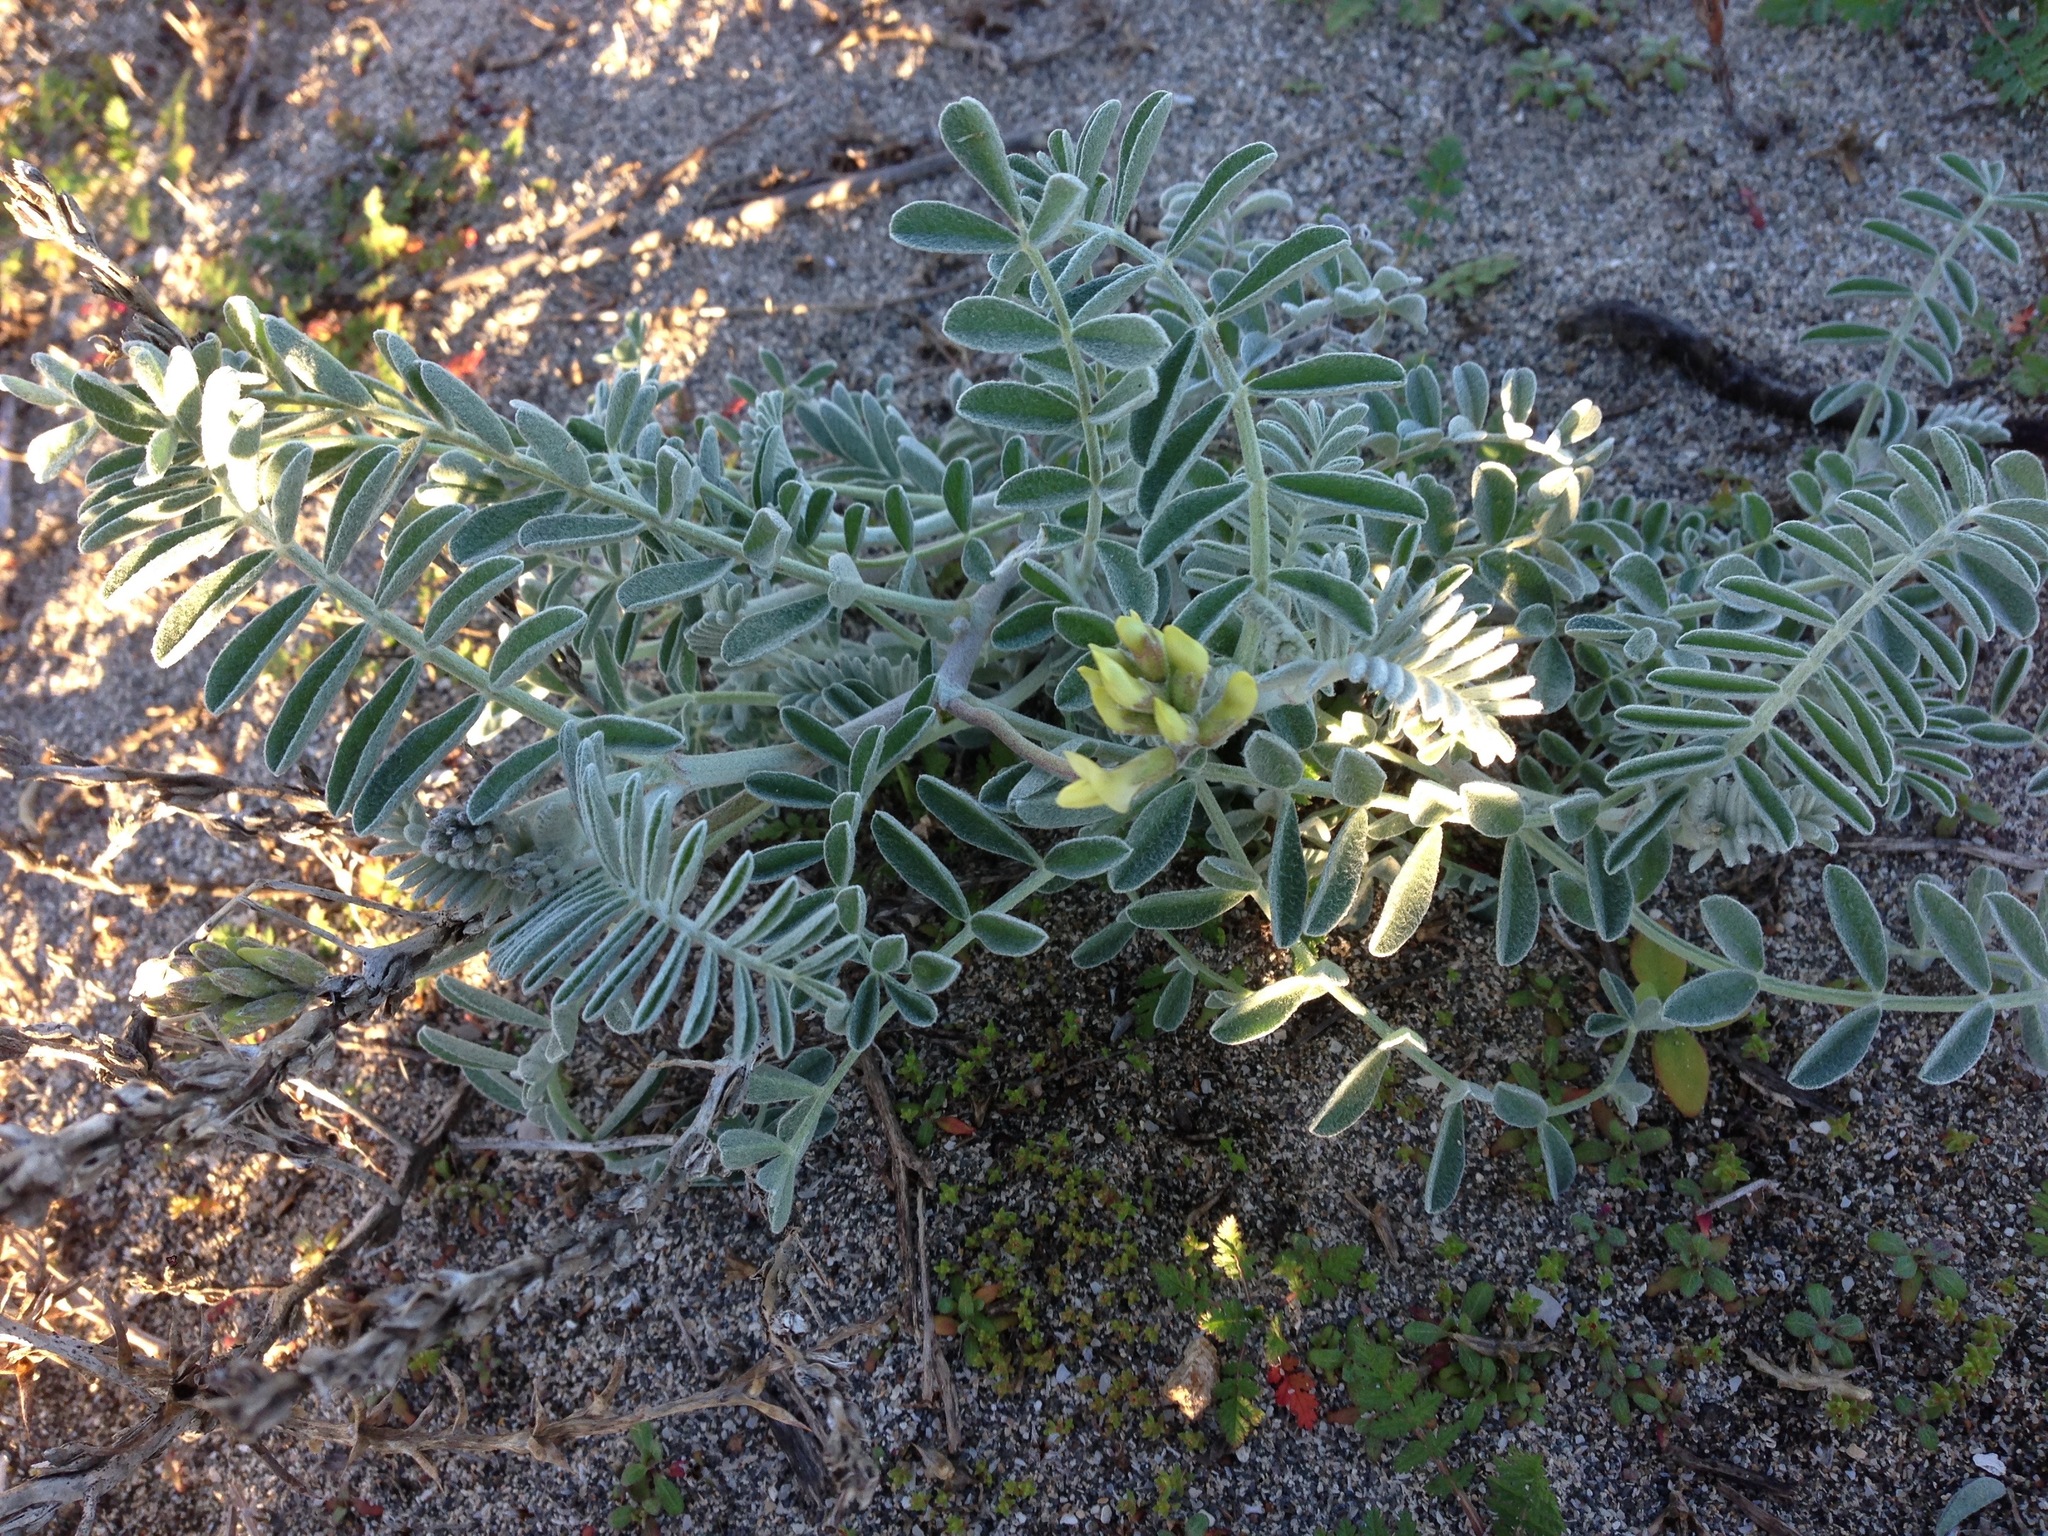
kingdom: Plantae
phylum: Tracheophyta
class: Magnoliopsida
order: Fabales
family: Fabaceae
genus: Astragalus
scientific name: Astragalus nevinii
